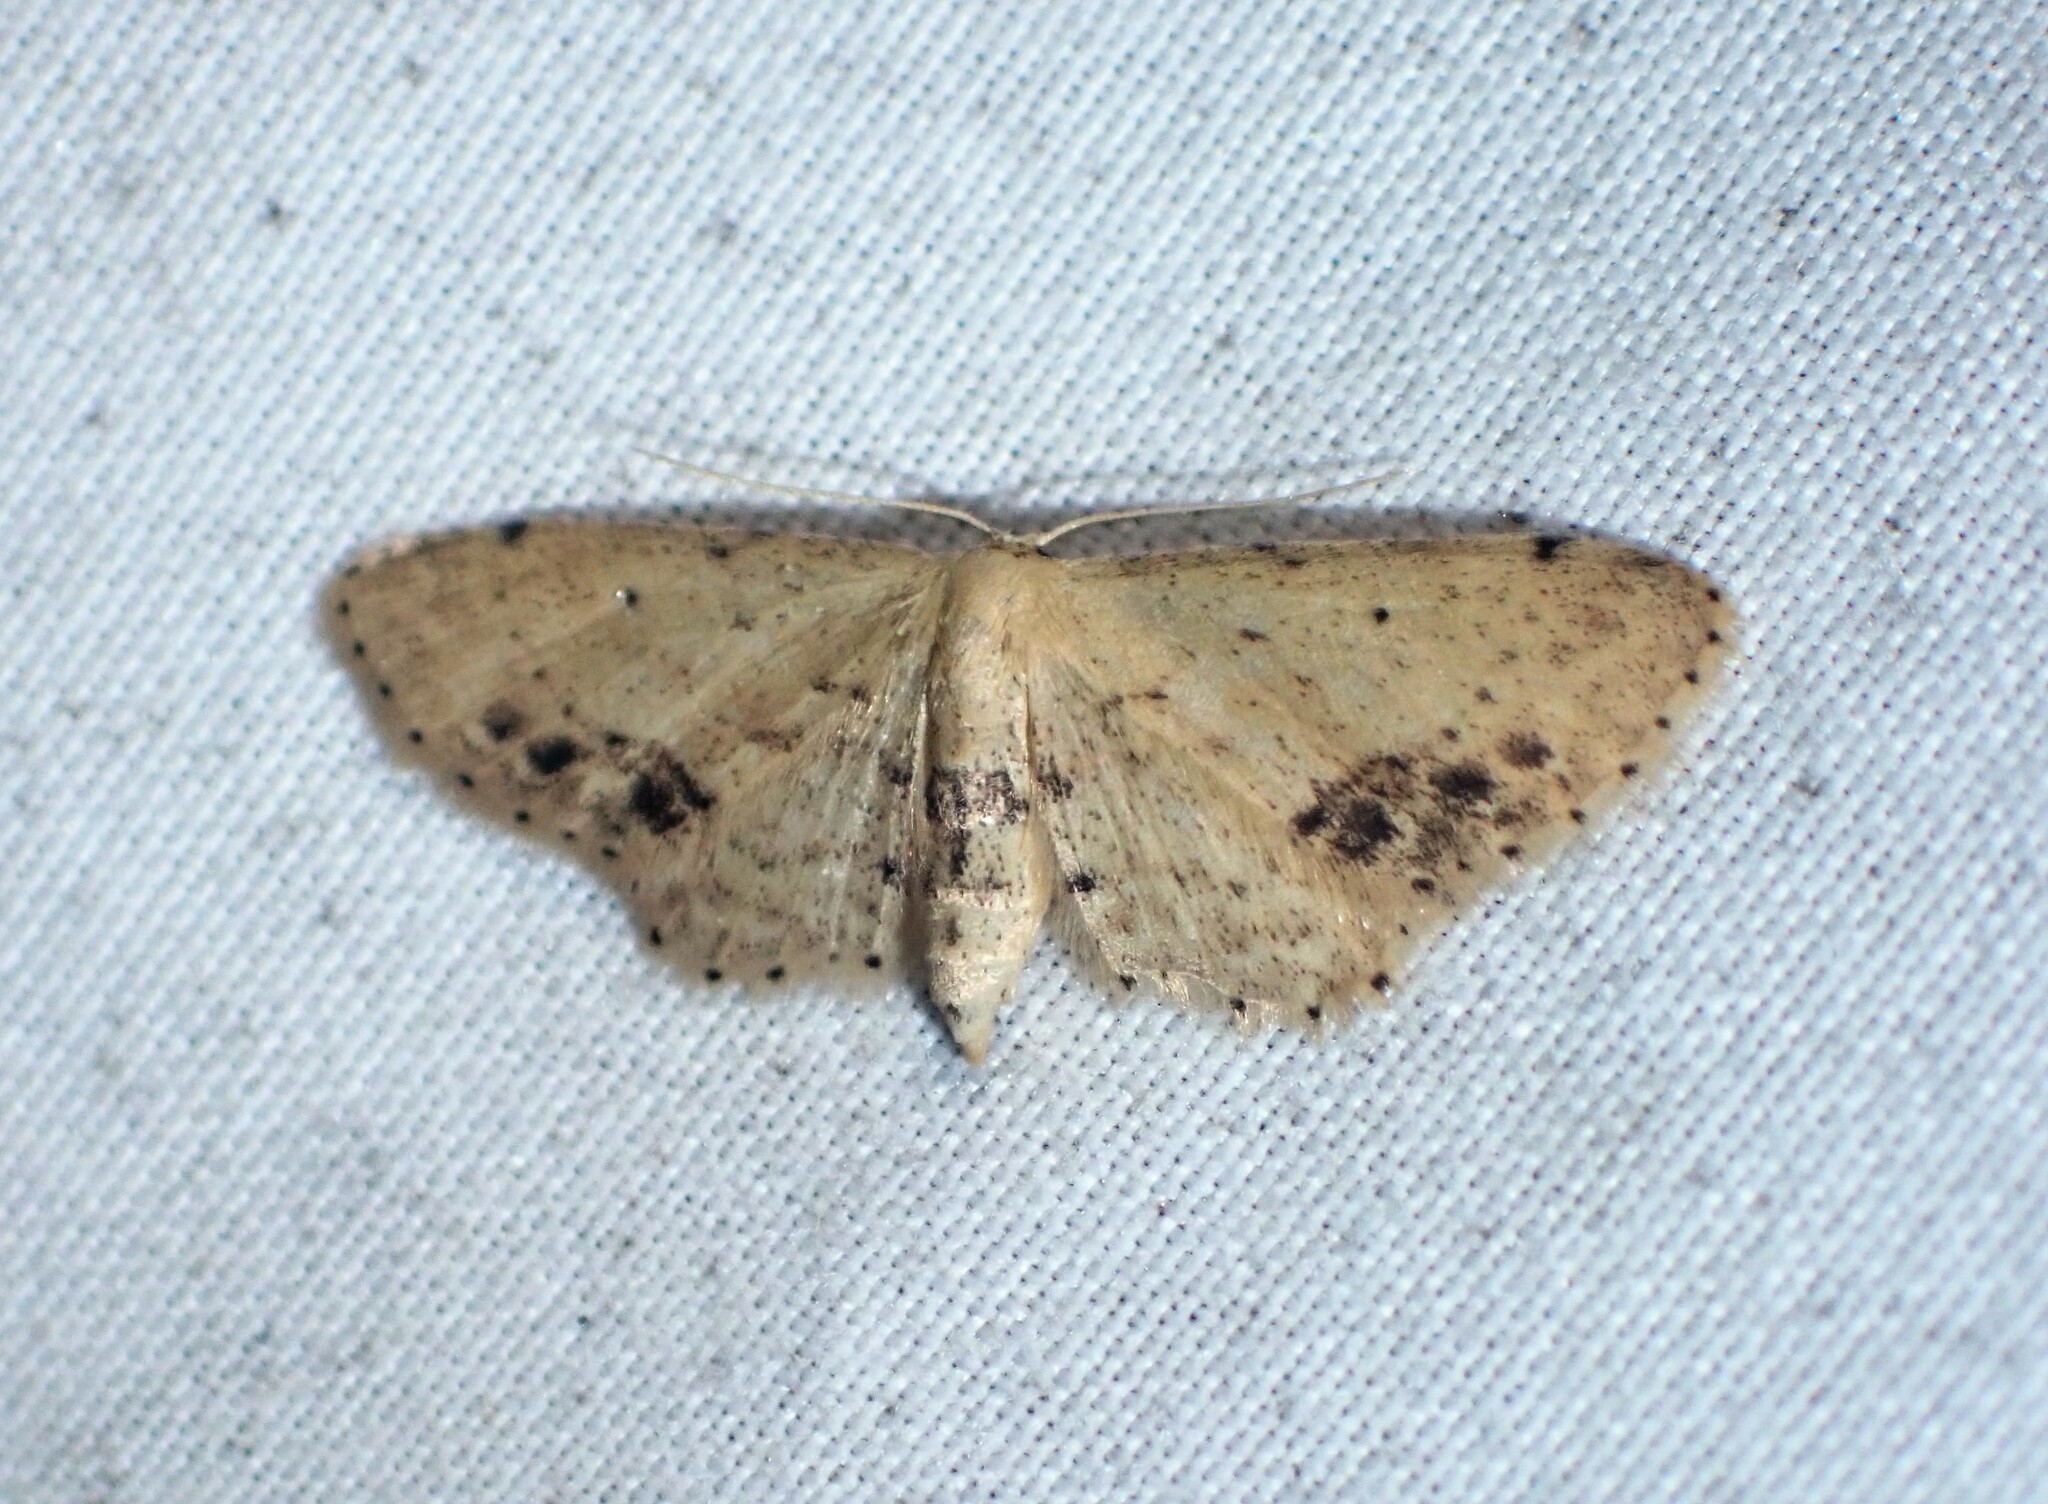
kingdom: Animalia
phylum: Arthropoda
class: Insecta
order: Lepidoptera
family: Geometridae
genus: Idaea
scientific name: Idaea dimidiata
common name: Single-dotted wave
